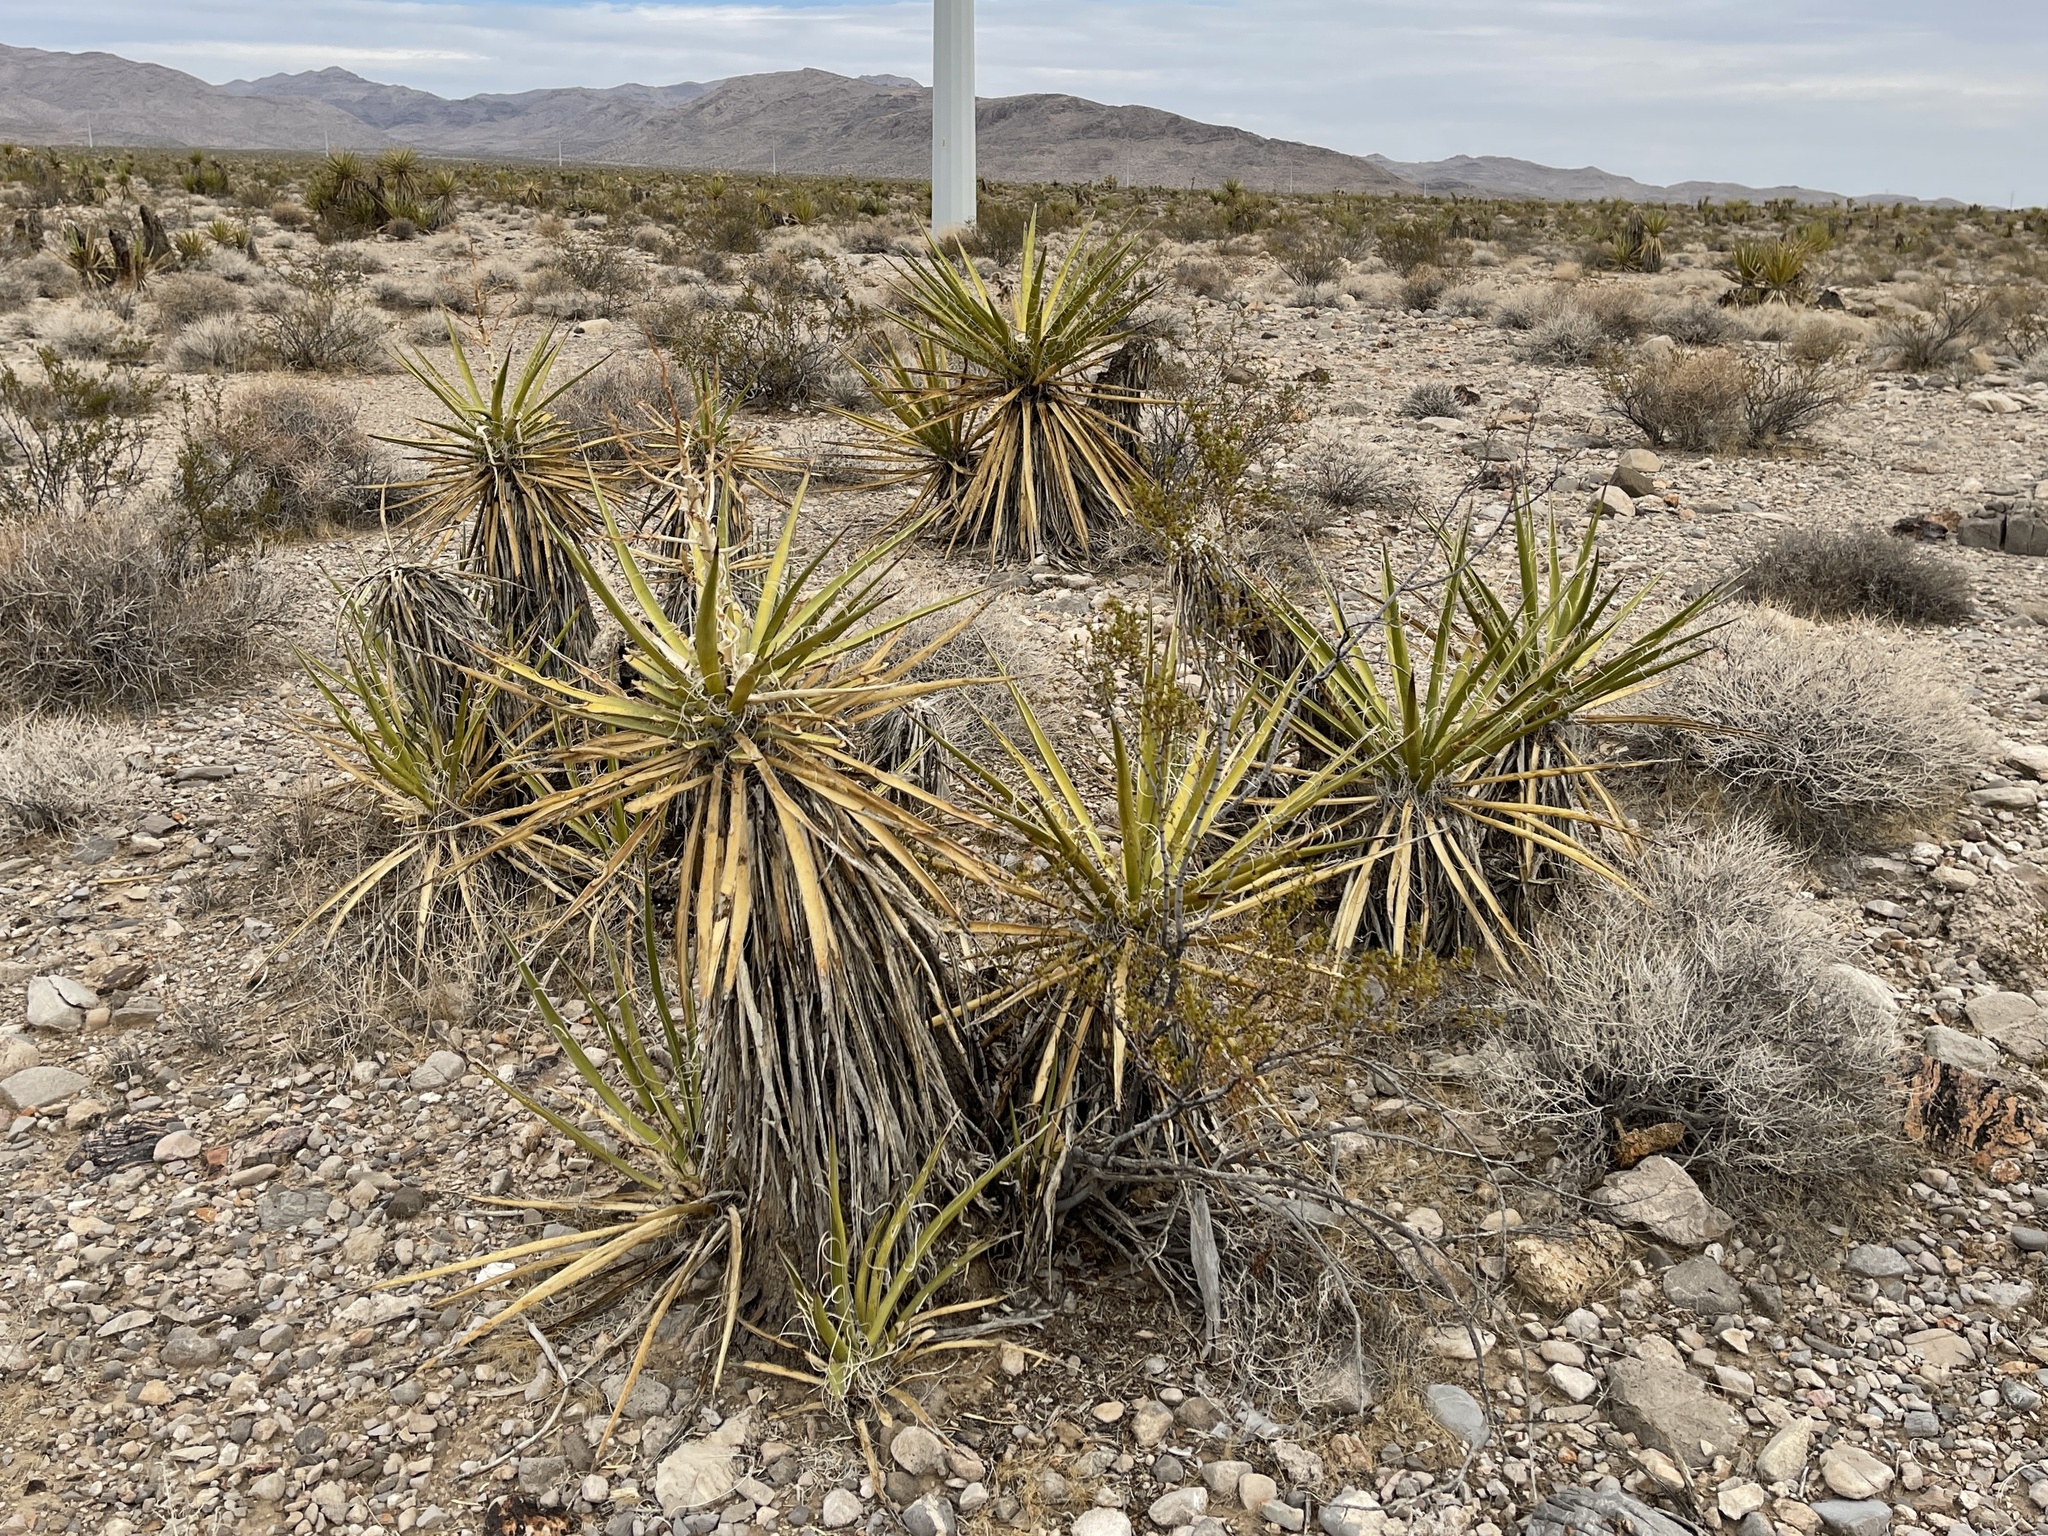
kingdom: Plantae
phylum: Tracheophyta
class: Liliopsida
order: Asparagales
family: Asparagaceae
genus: Yucca
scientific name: Yucca schidigera
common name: Mojave yucca
